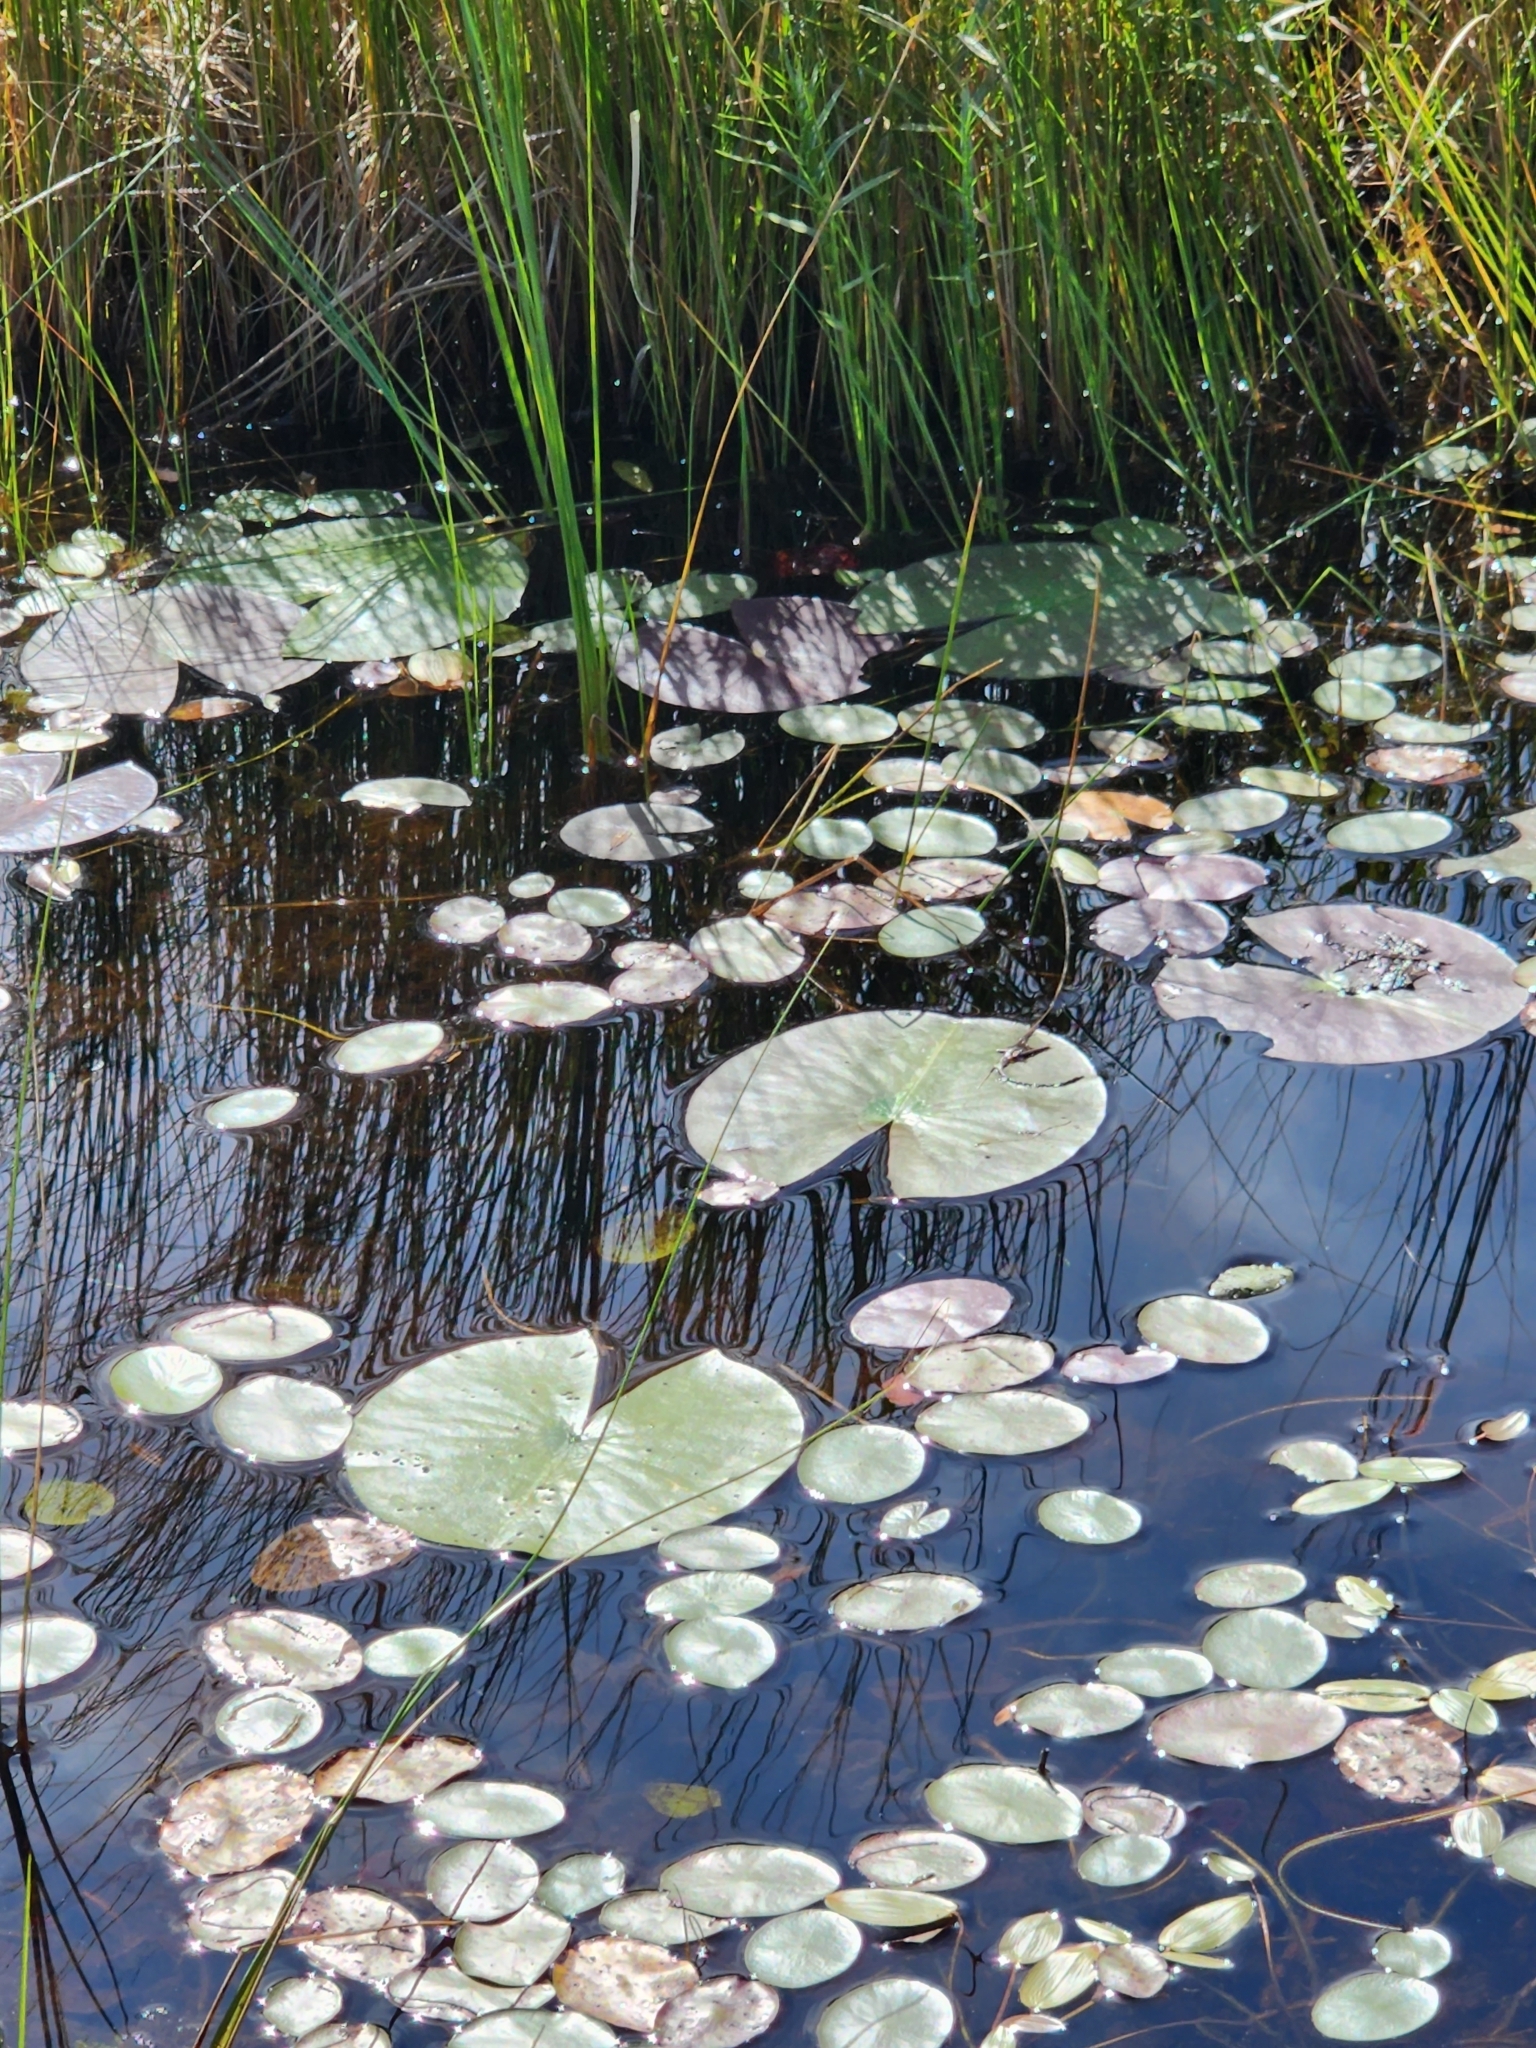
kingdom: Plantae
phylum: Tracheophyta
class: Magnoliopsida
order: Nymphaeales
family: Nymphaeaceae
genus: Nymphaea
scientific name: Nymphaea odorata
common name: Fragrant water-lily
